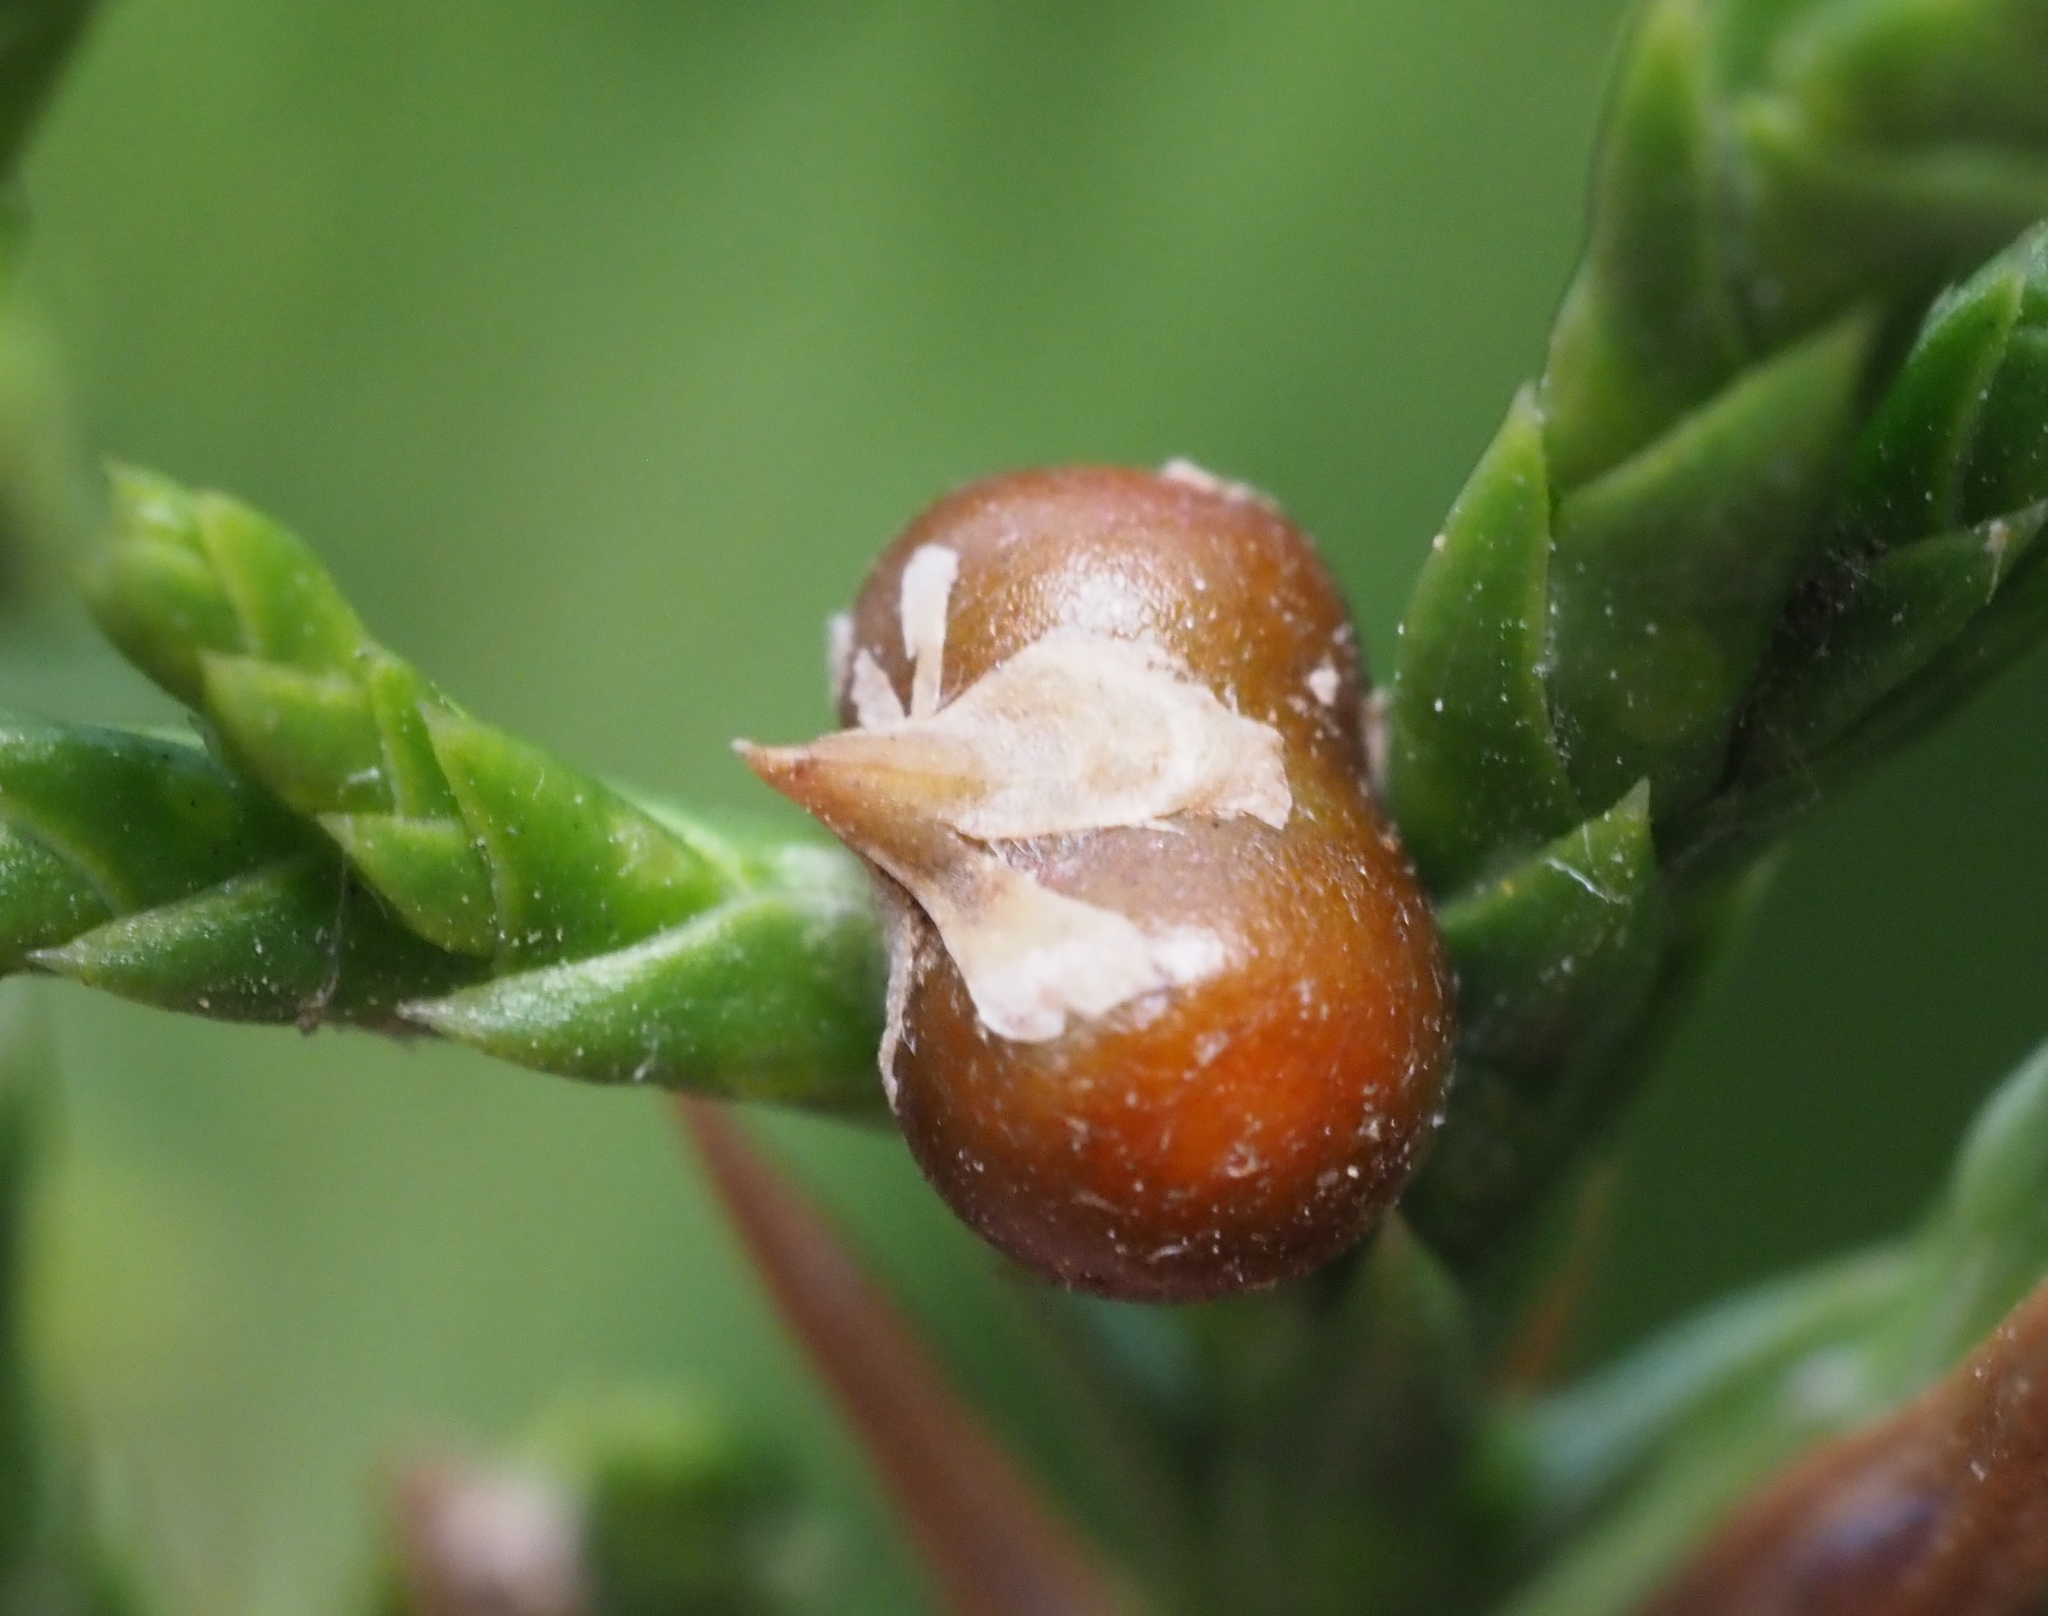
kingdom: Plantae
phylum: Tracheophyta
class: Pinopsida
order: Pinales
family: Cupressaceae
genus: Juniperus
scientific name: Juniperus virginiana
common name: Red juniper
